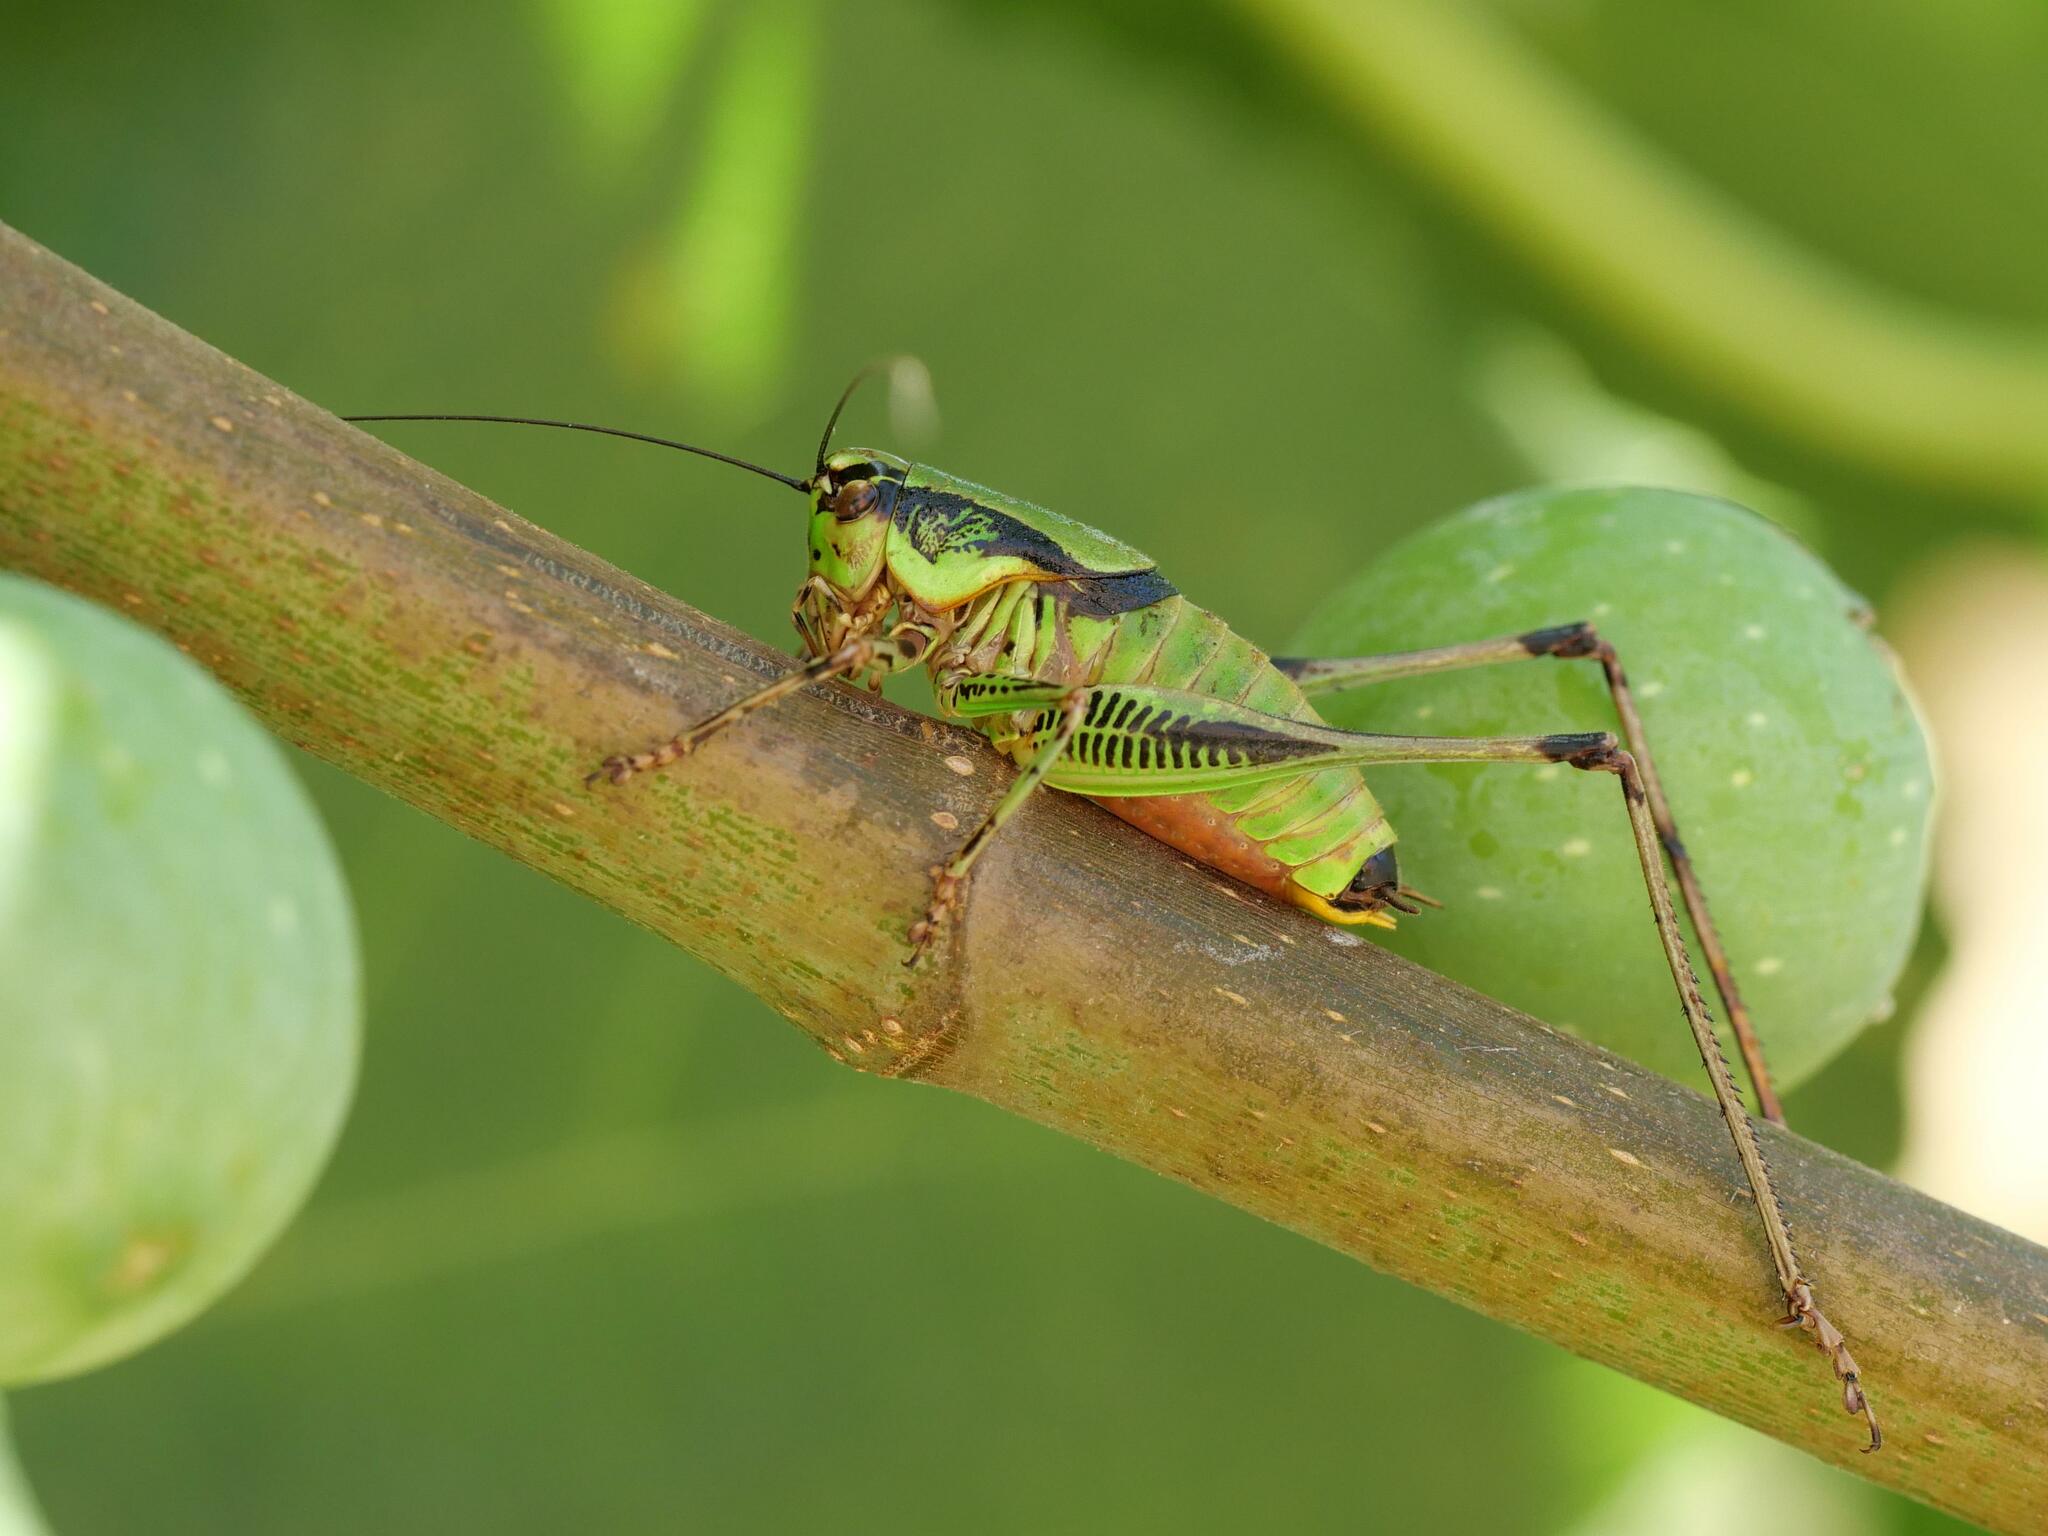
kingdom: Animalia
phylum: Arthropoda
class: Insecta
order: Orthoptera
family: Tettigoniidae
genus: Eupholidoptera
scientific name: Eupholidoptera garganica
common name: Gargano marbled bush-cricket
